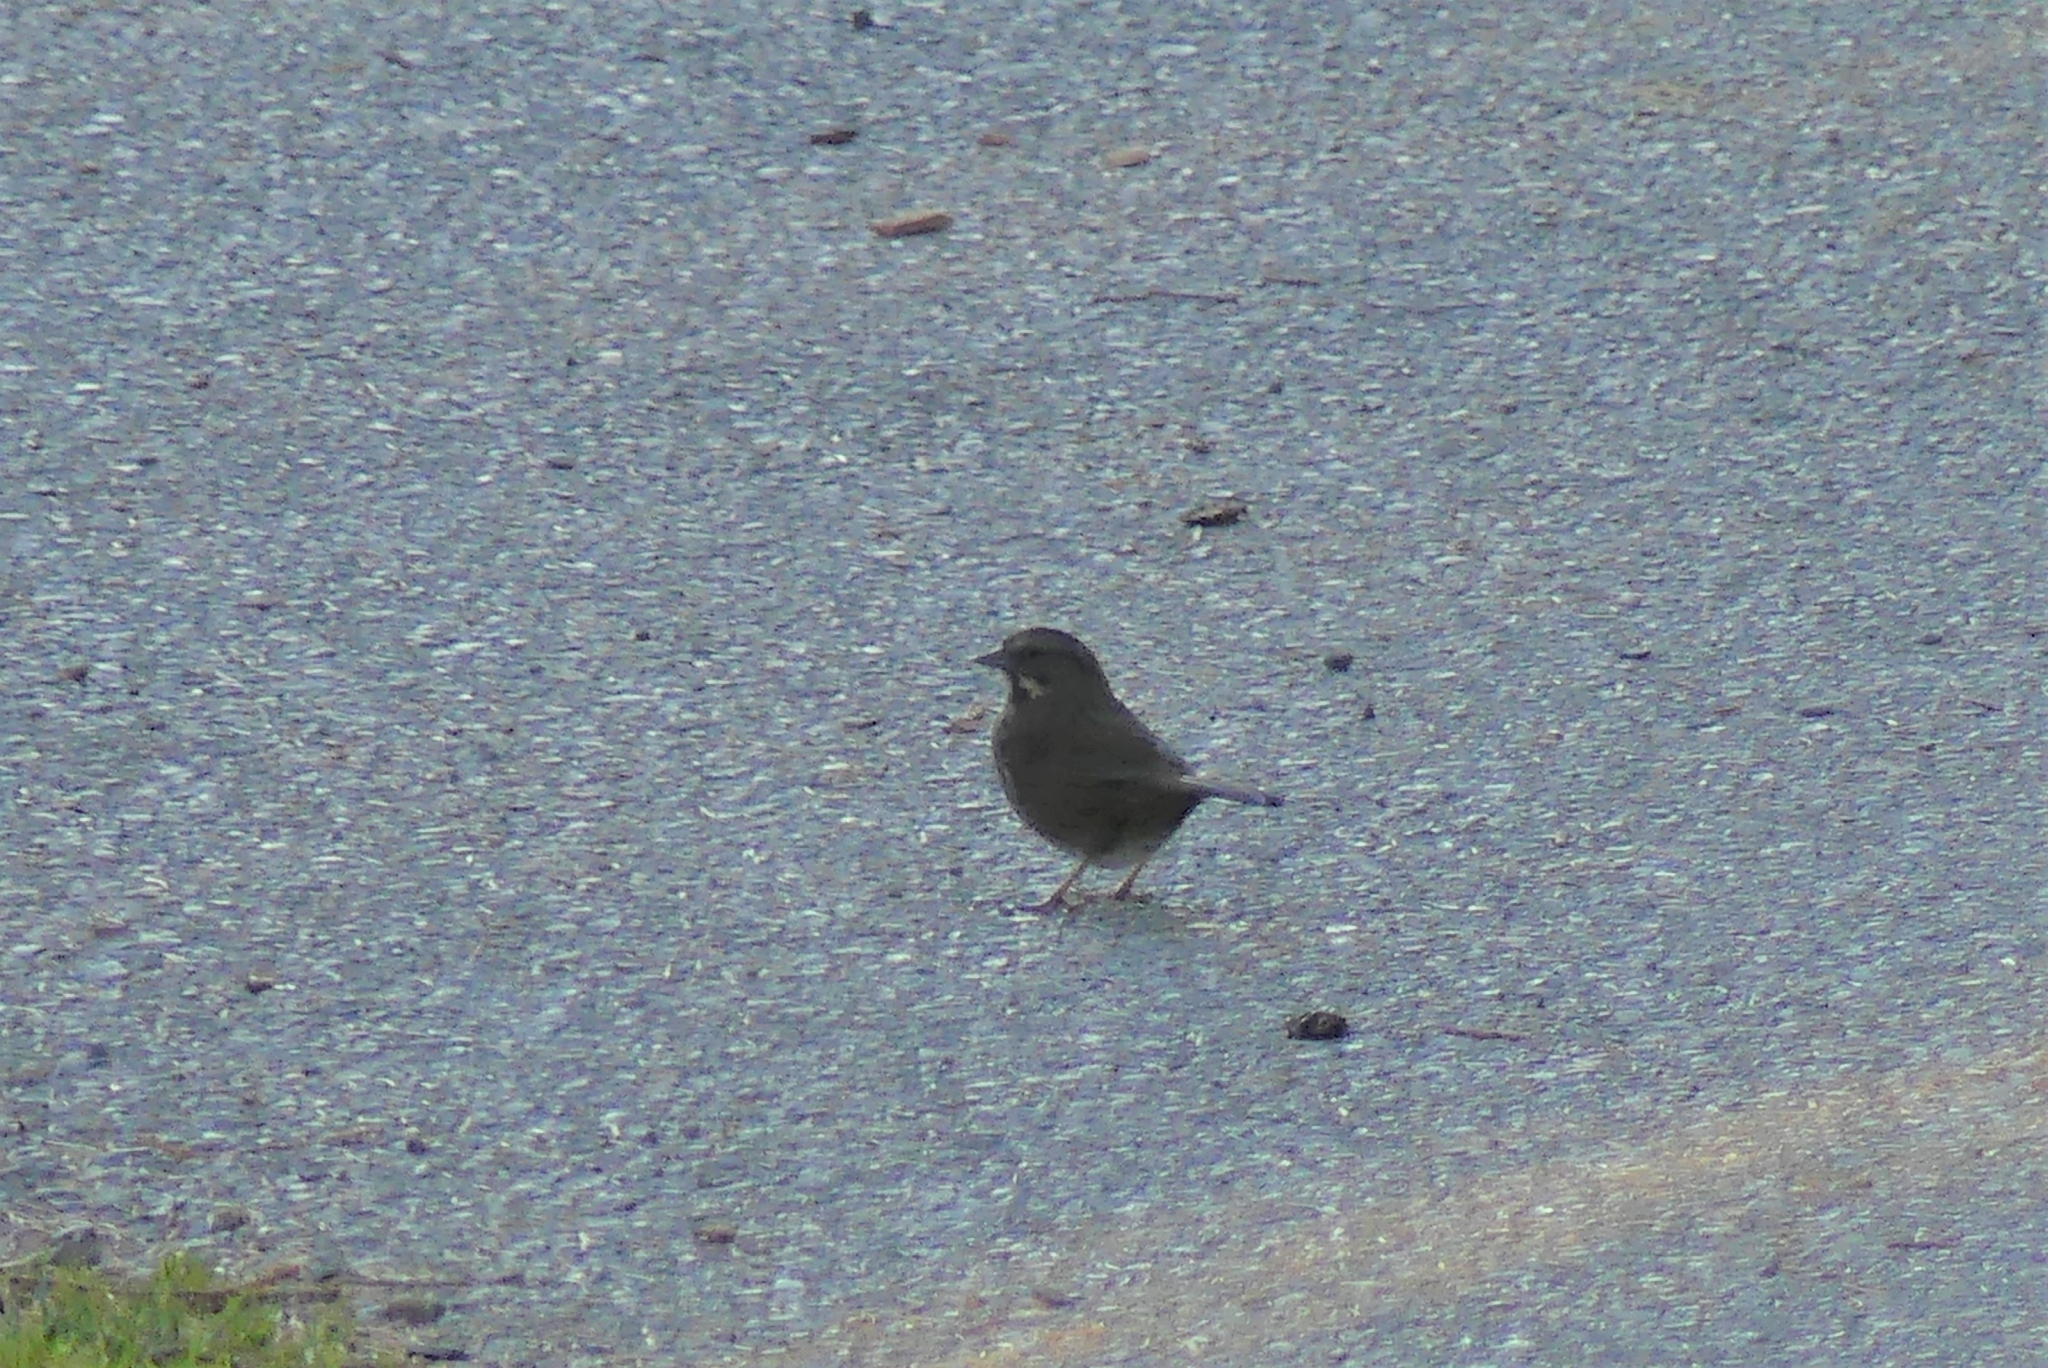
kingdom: Animalia
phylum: Chordata
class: Aves
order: Passeriformes
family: Passerellidae
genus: Melospiza
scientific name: Melospiza melodia
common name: Song sparrow
